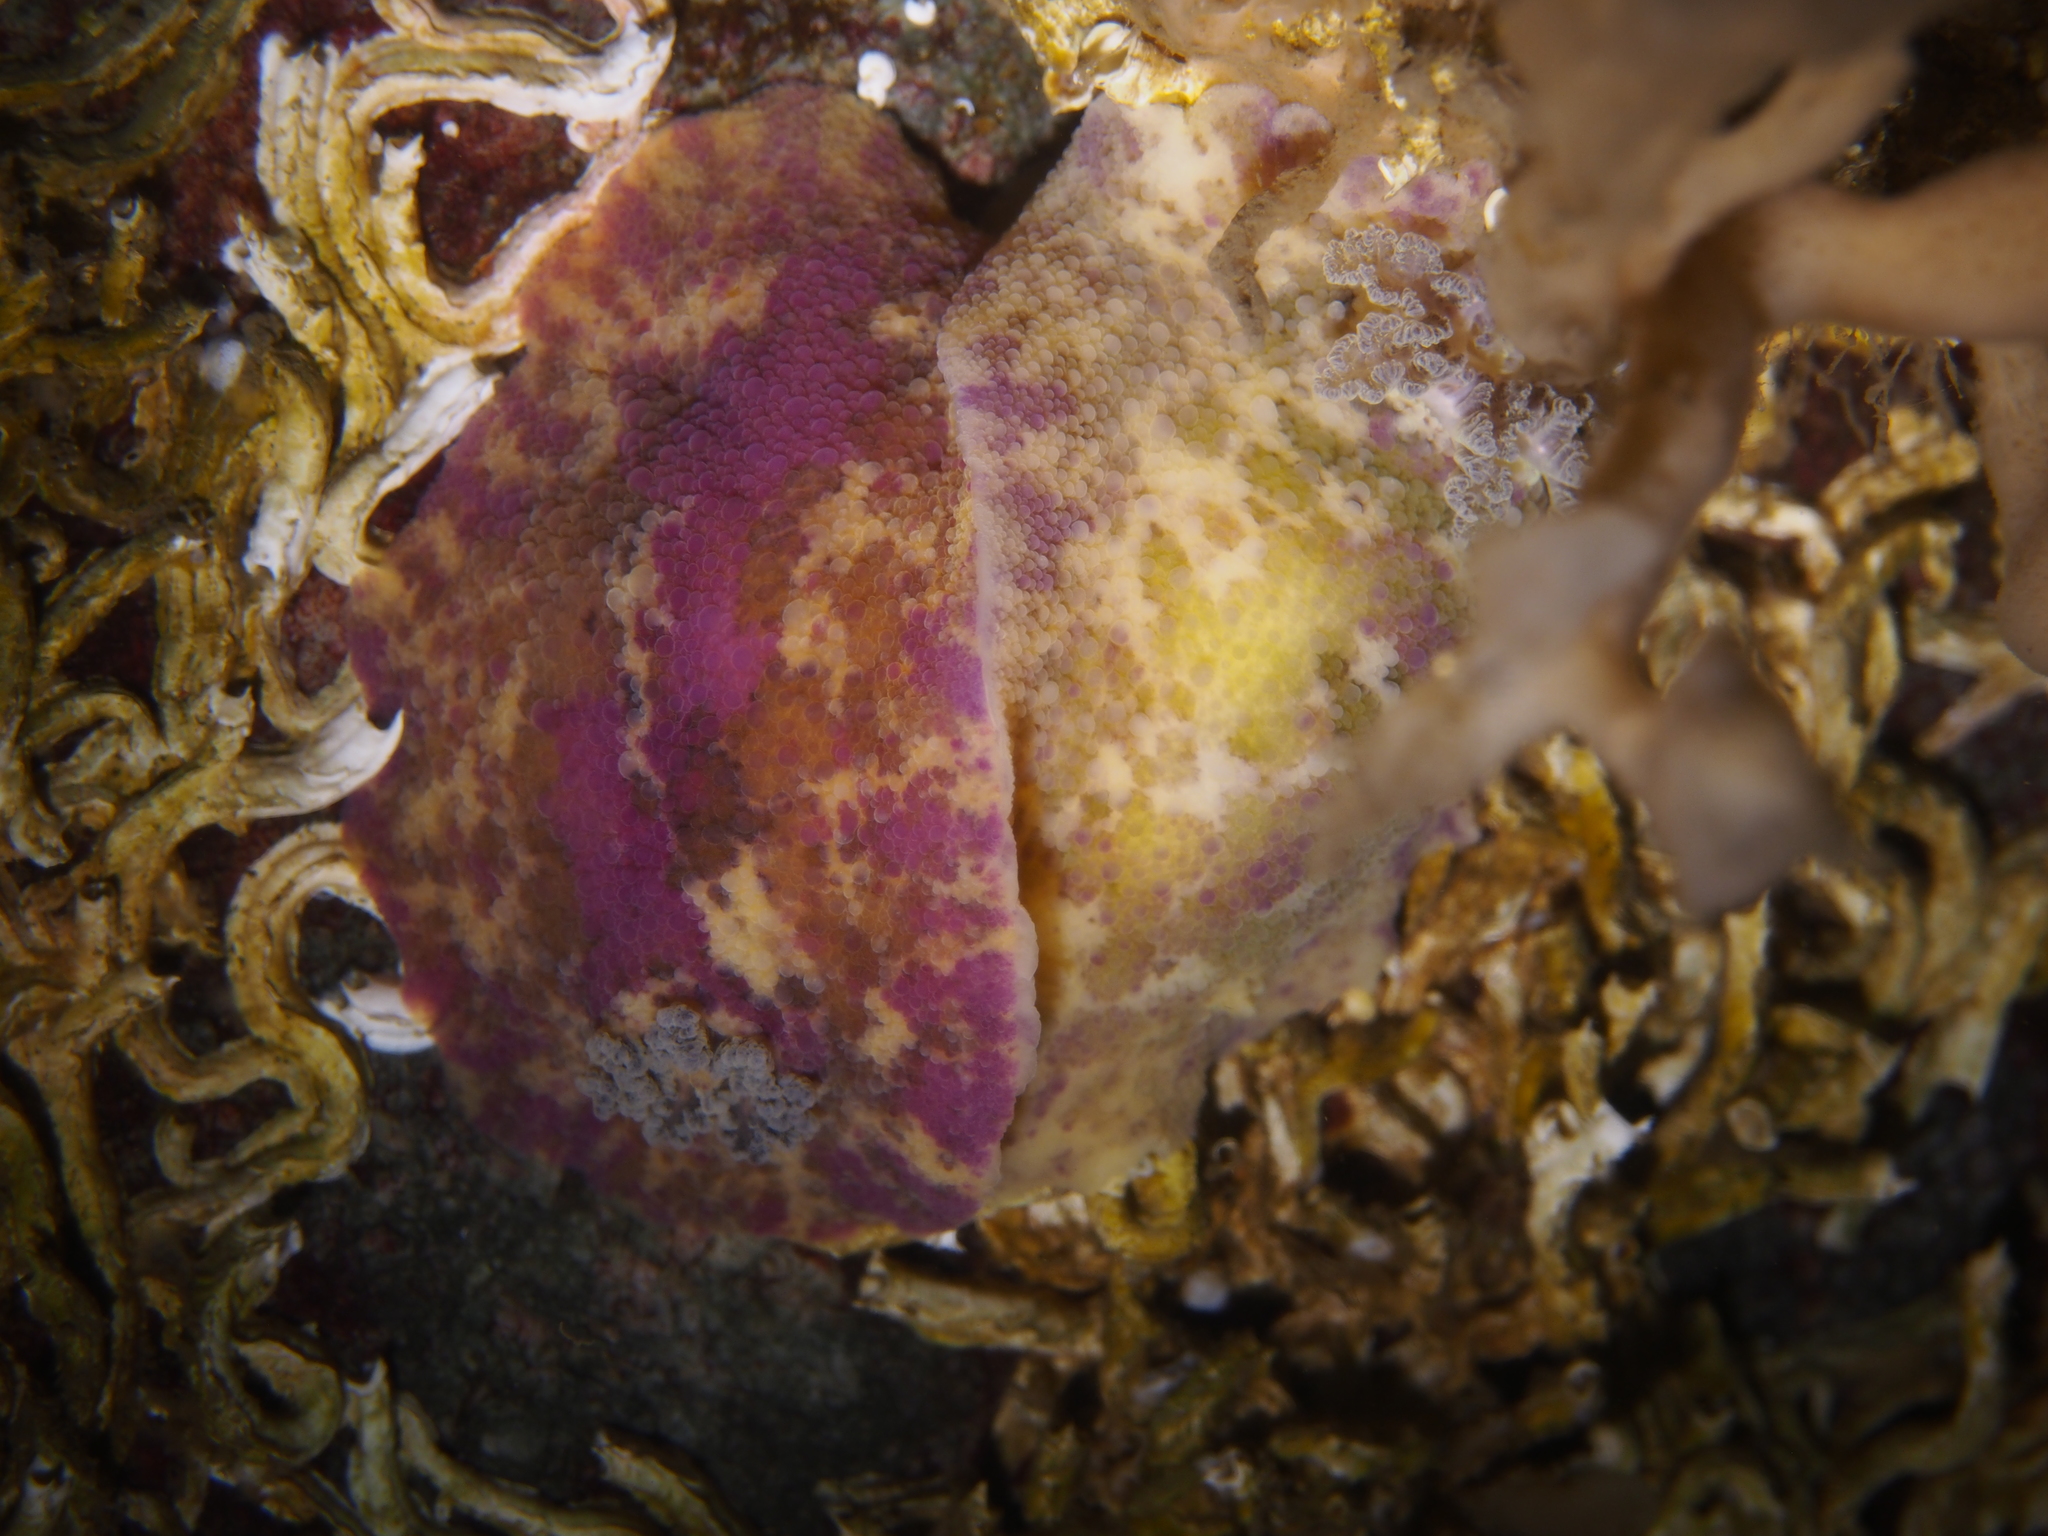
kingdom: Animalia
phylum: Mollusca
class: Gastropoda
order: Nudibranchia
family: Dorididae
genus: Doris
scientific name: Doris pseudoargus
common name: Sea lemon
